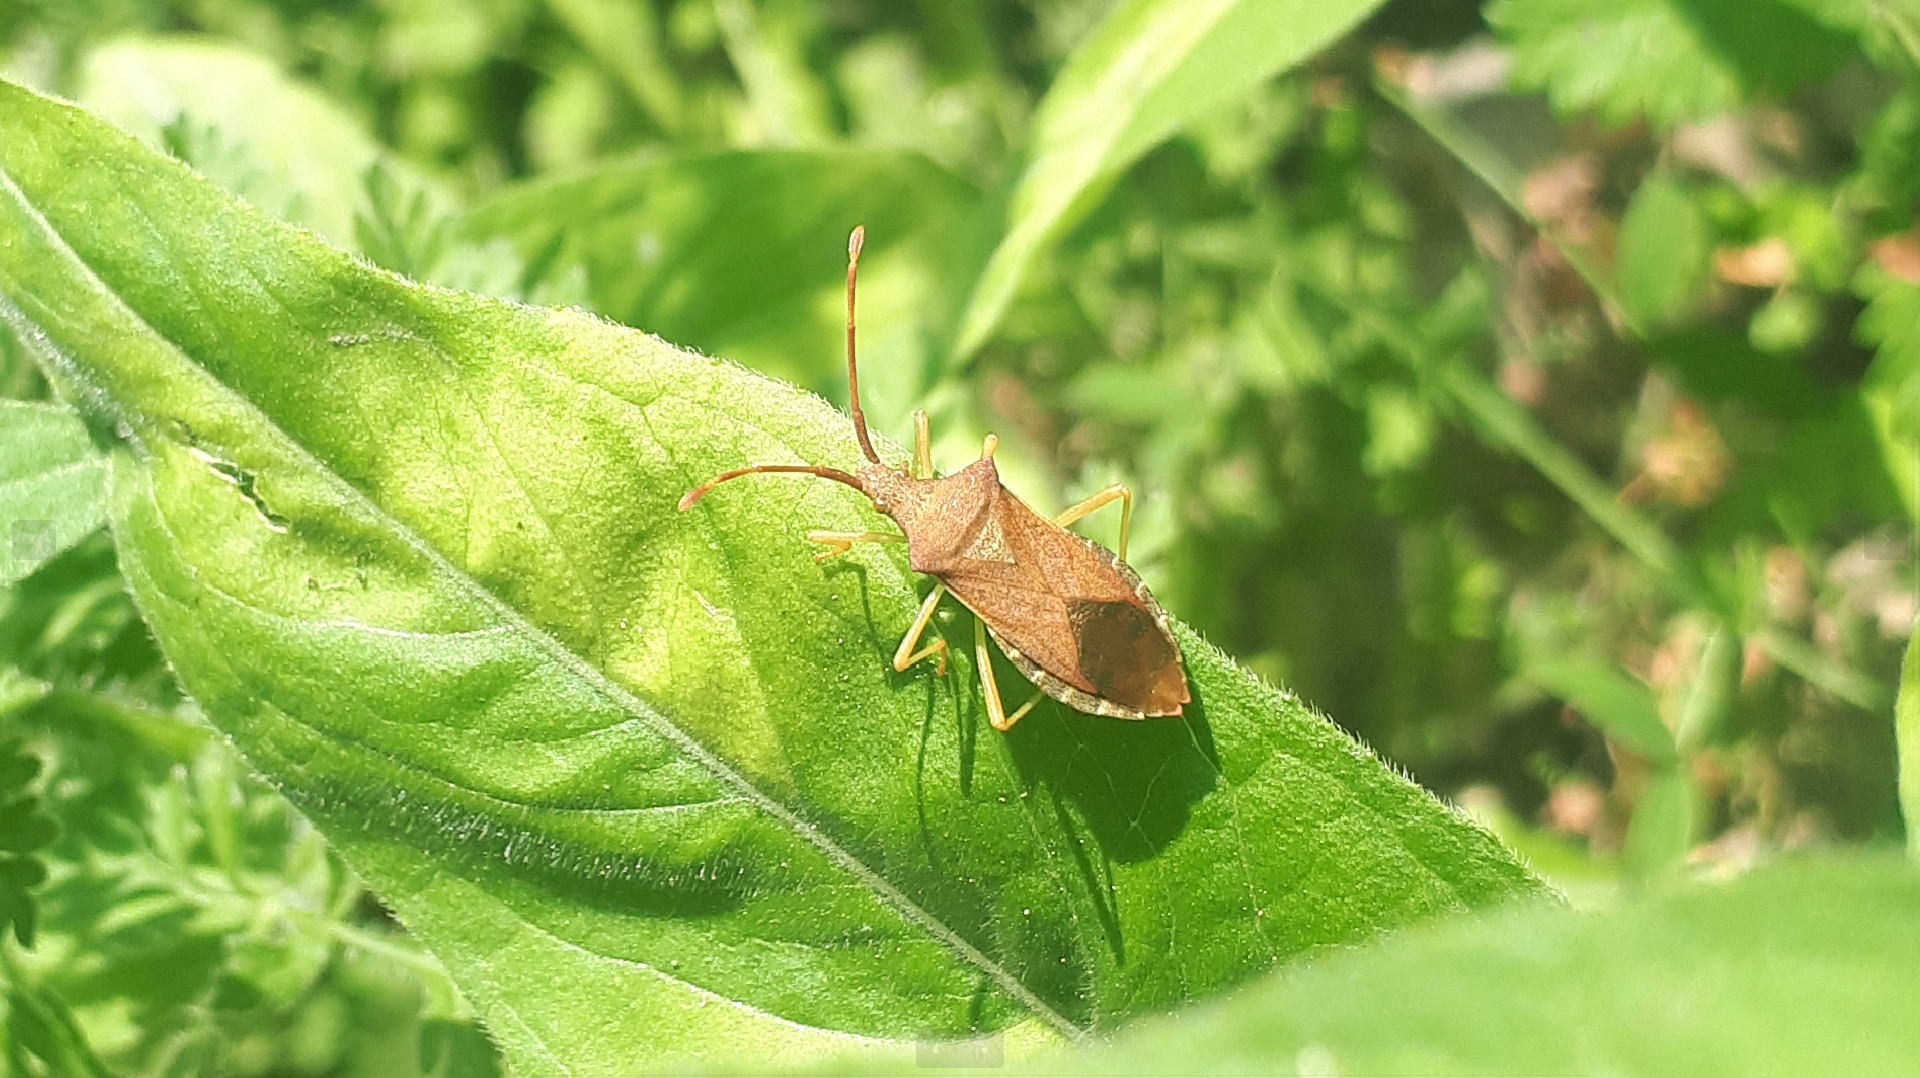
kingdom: Animalia
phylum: Arthropoda
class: Insecta
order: Hemiptera
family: Coreidae
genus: Gonocerus
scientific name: Gonocerus acuteangulatus
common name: Box bug
